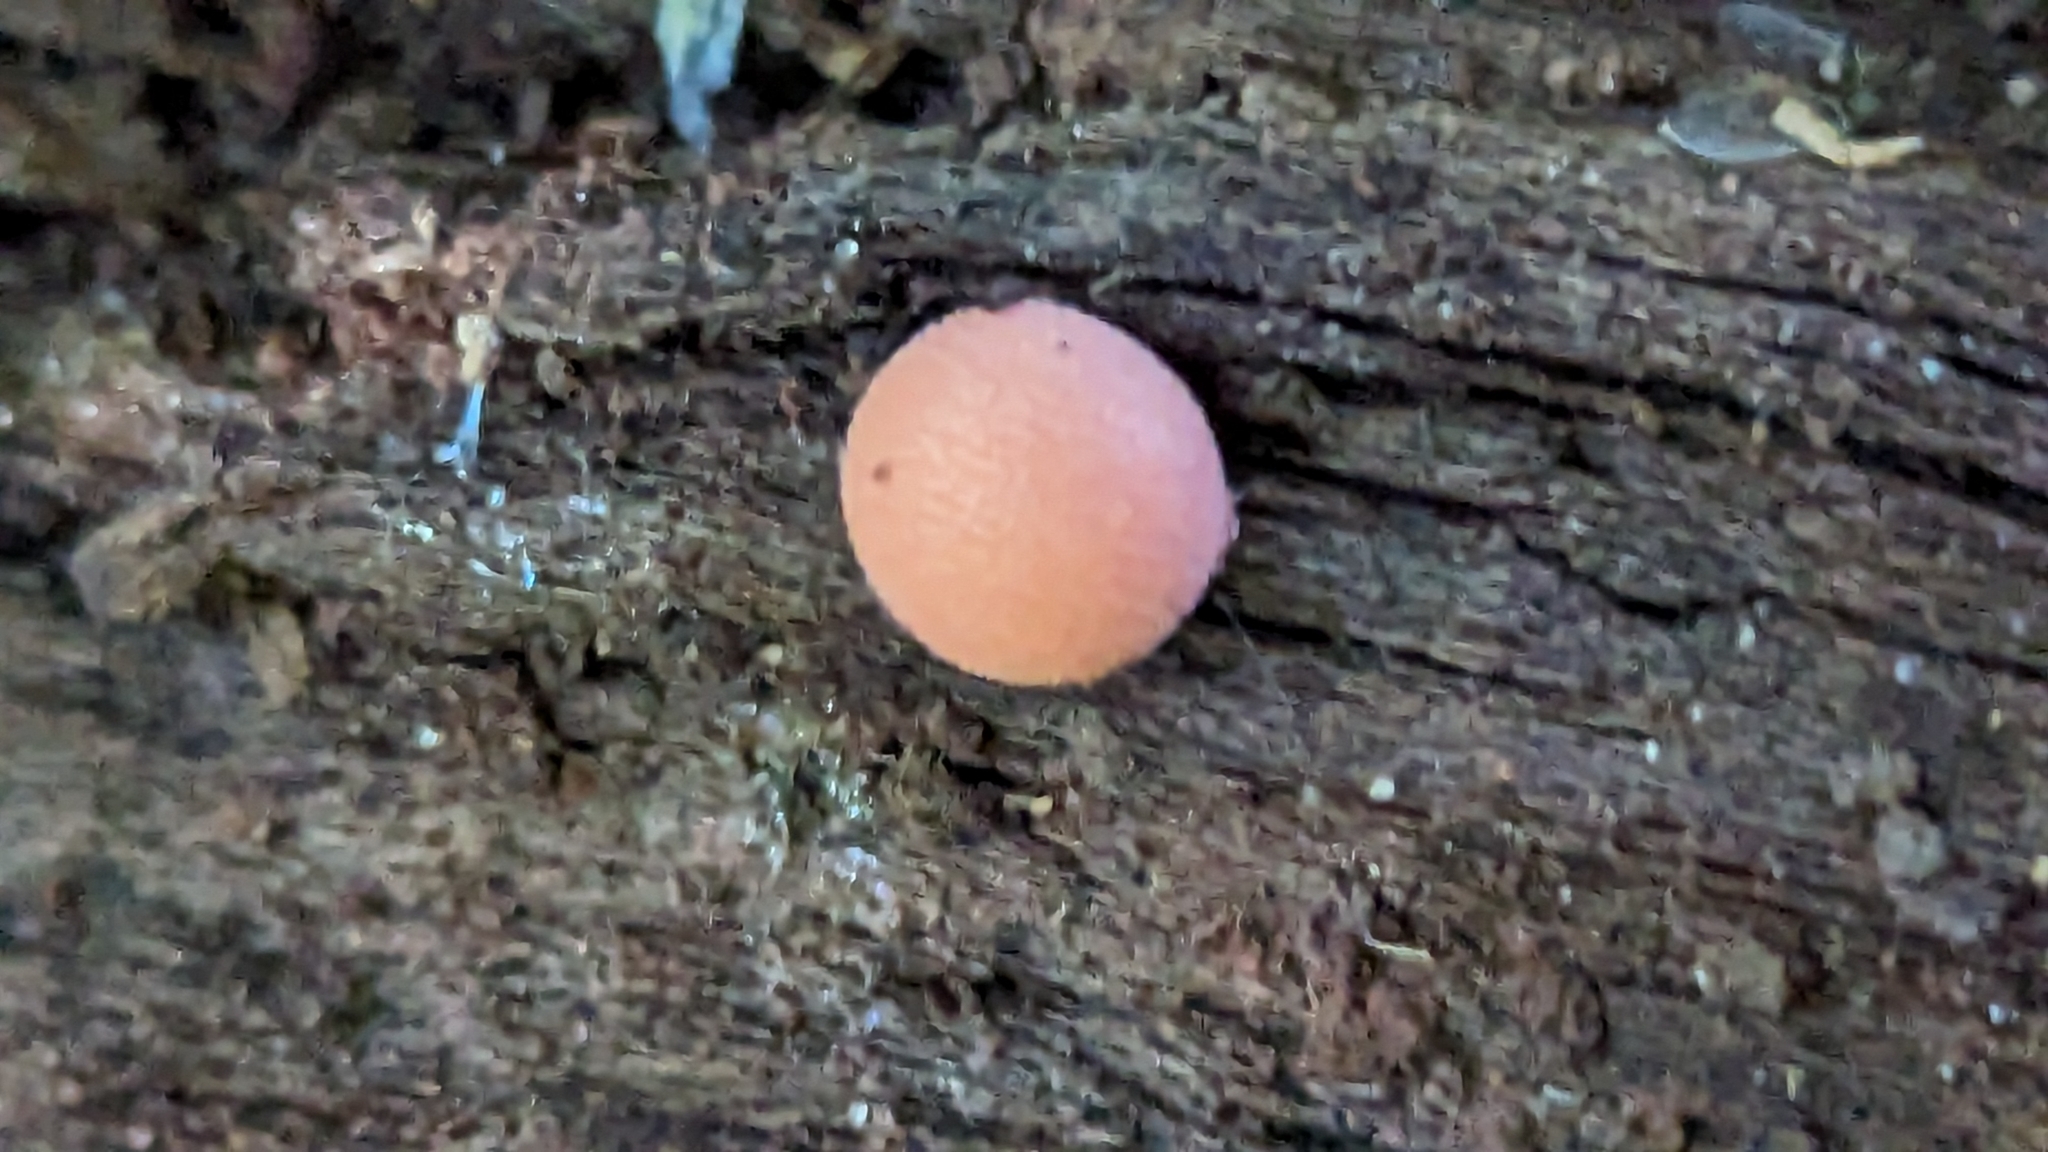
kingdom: Protozoa
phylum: Mycetozoa
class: Myxomycetes
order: Cribrariales
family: Tubiferaceae
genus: Lycogala
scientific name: Lycogala epidendrum
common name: Wolf's milk
